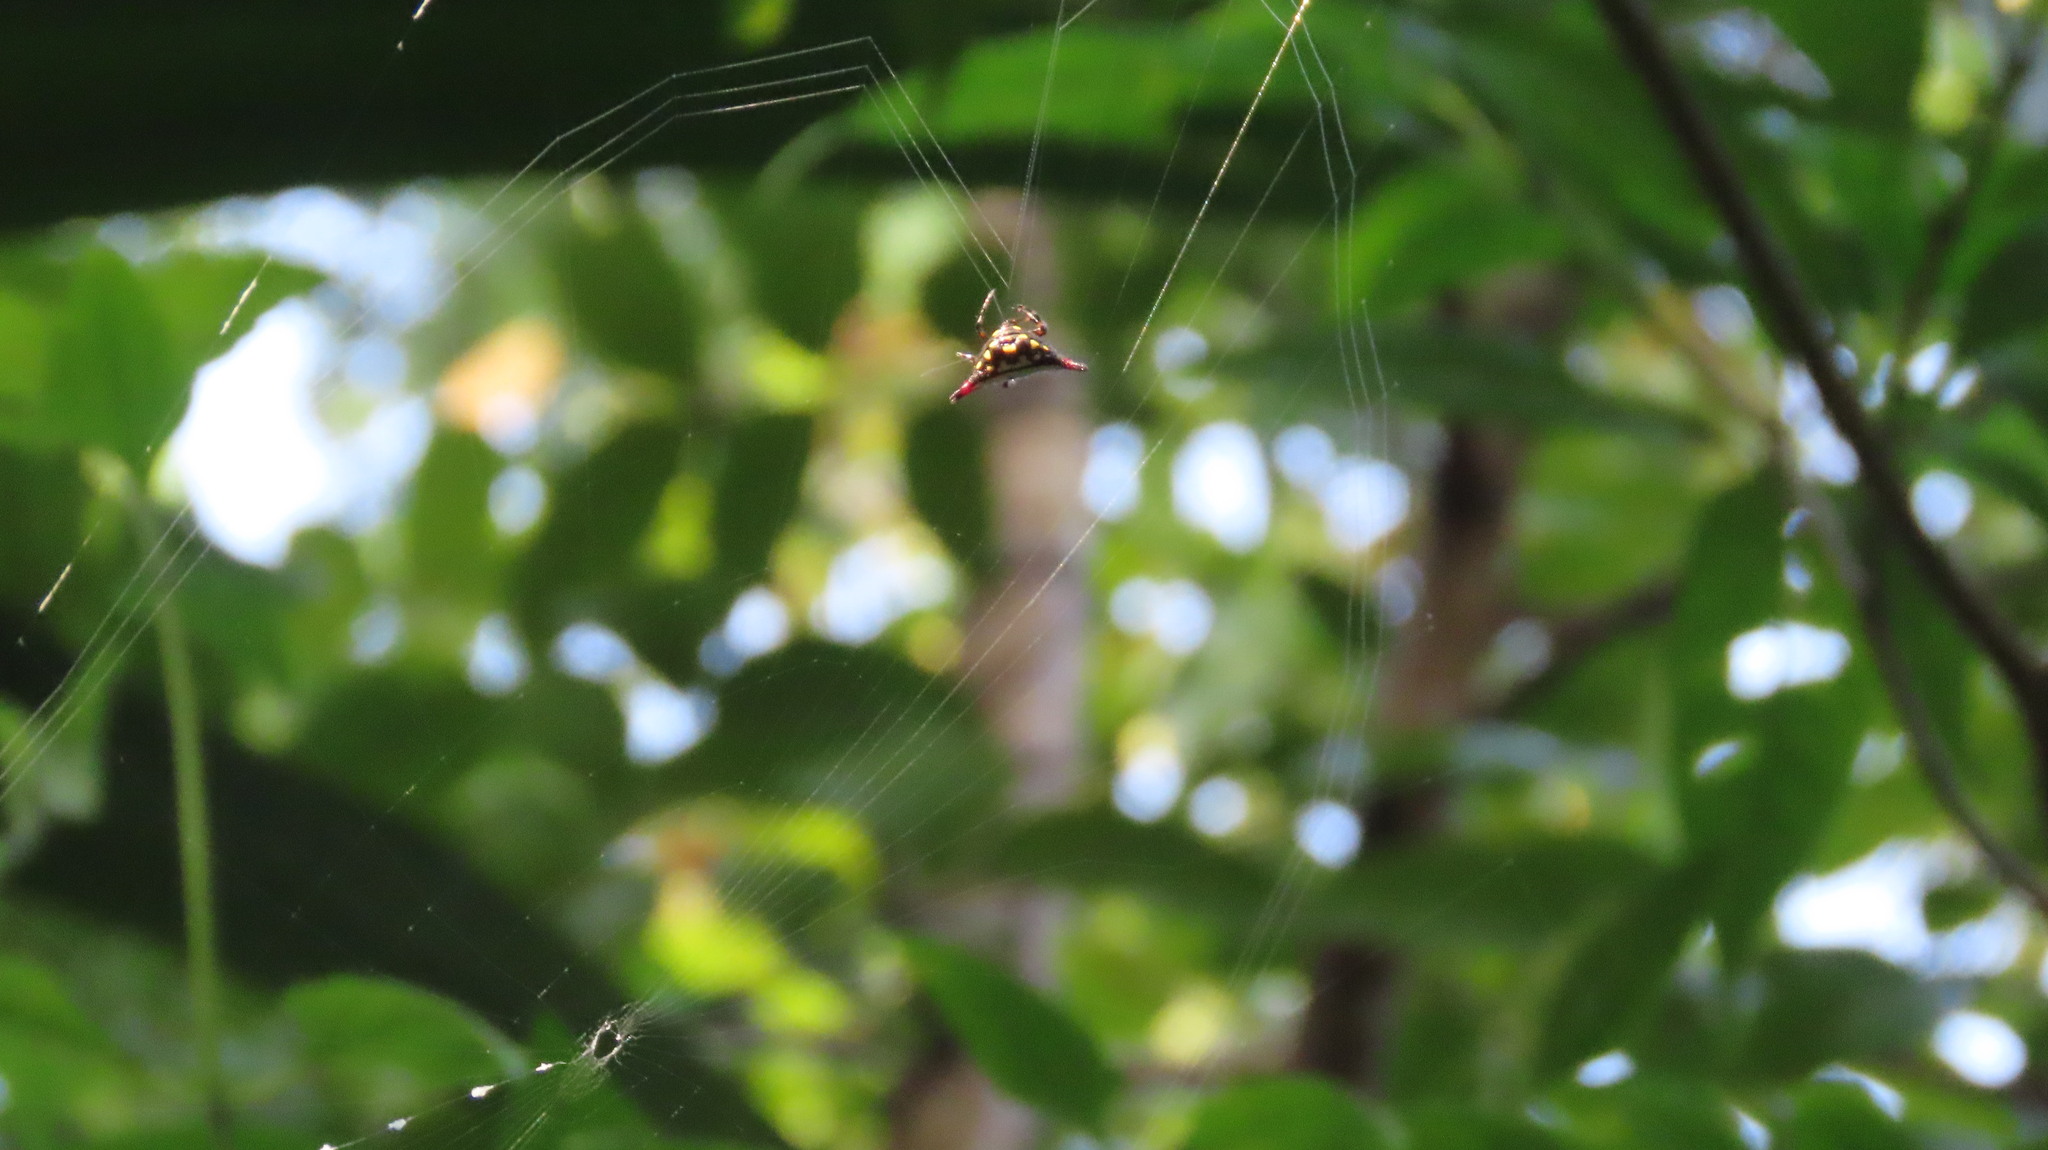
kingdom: Animalia
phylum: Arthropoda
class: Arachnida
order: Araneae
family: Araneidae
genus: Gasteracantha
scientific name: Gasteracantha geminata
